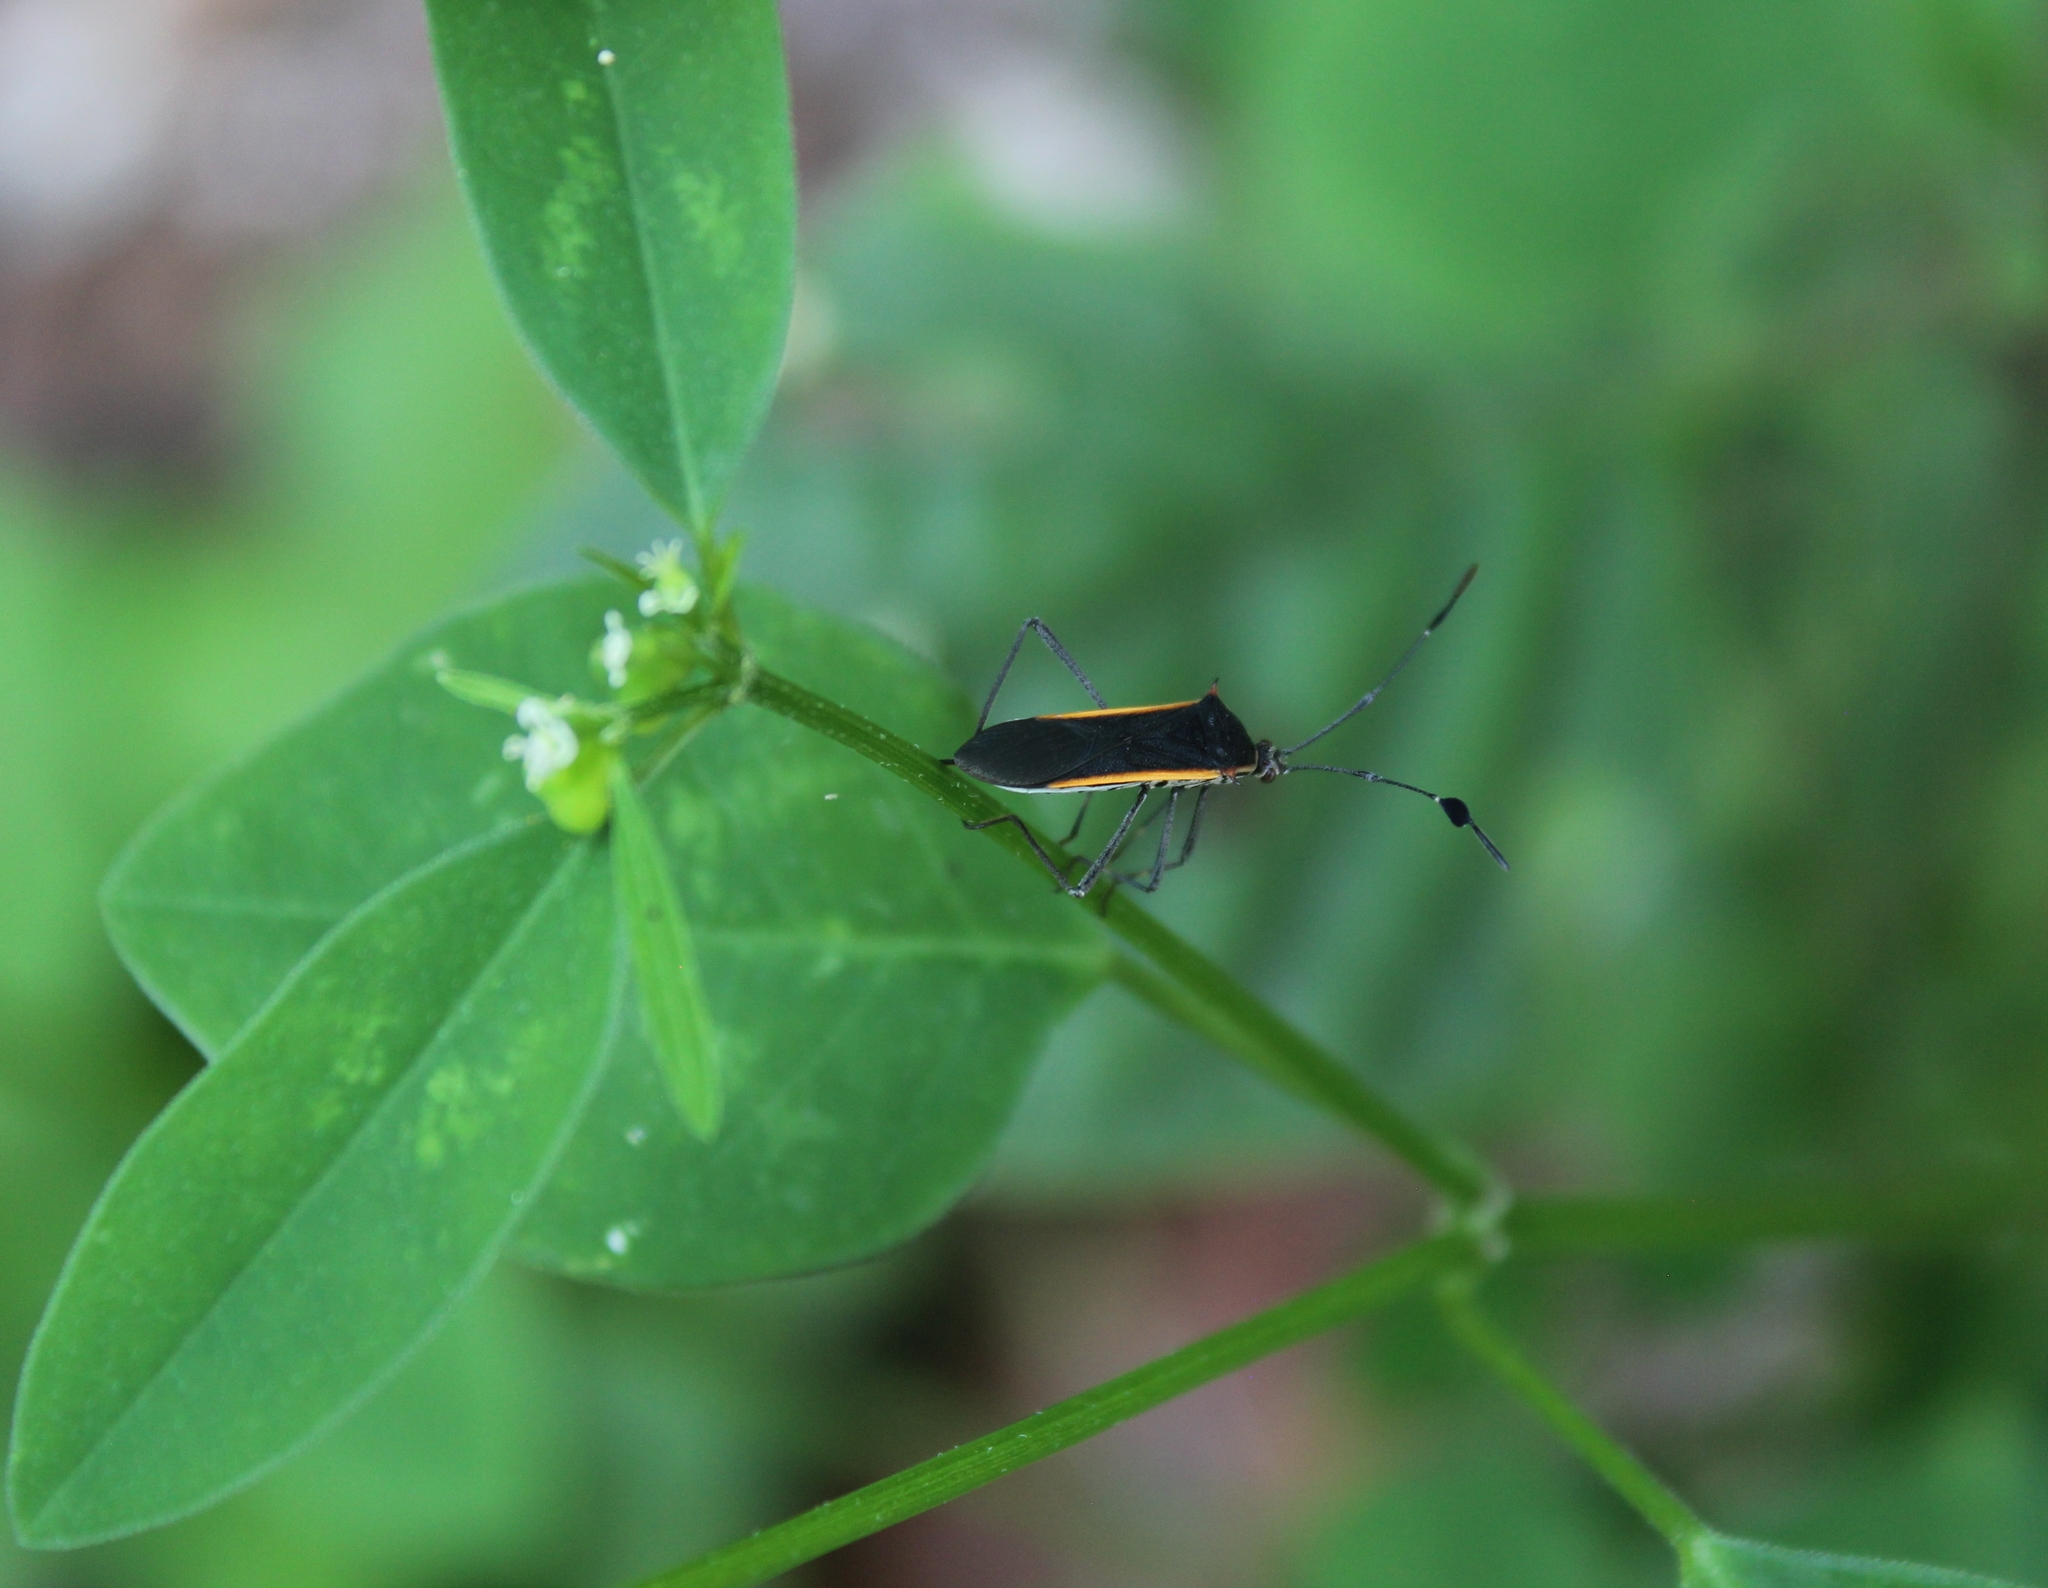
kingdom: Animalia
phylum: Arthropoda
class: Insecta
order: Hemiptera
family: Coreidae
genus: Plapigus
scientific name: Plapigus circumcinctus
